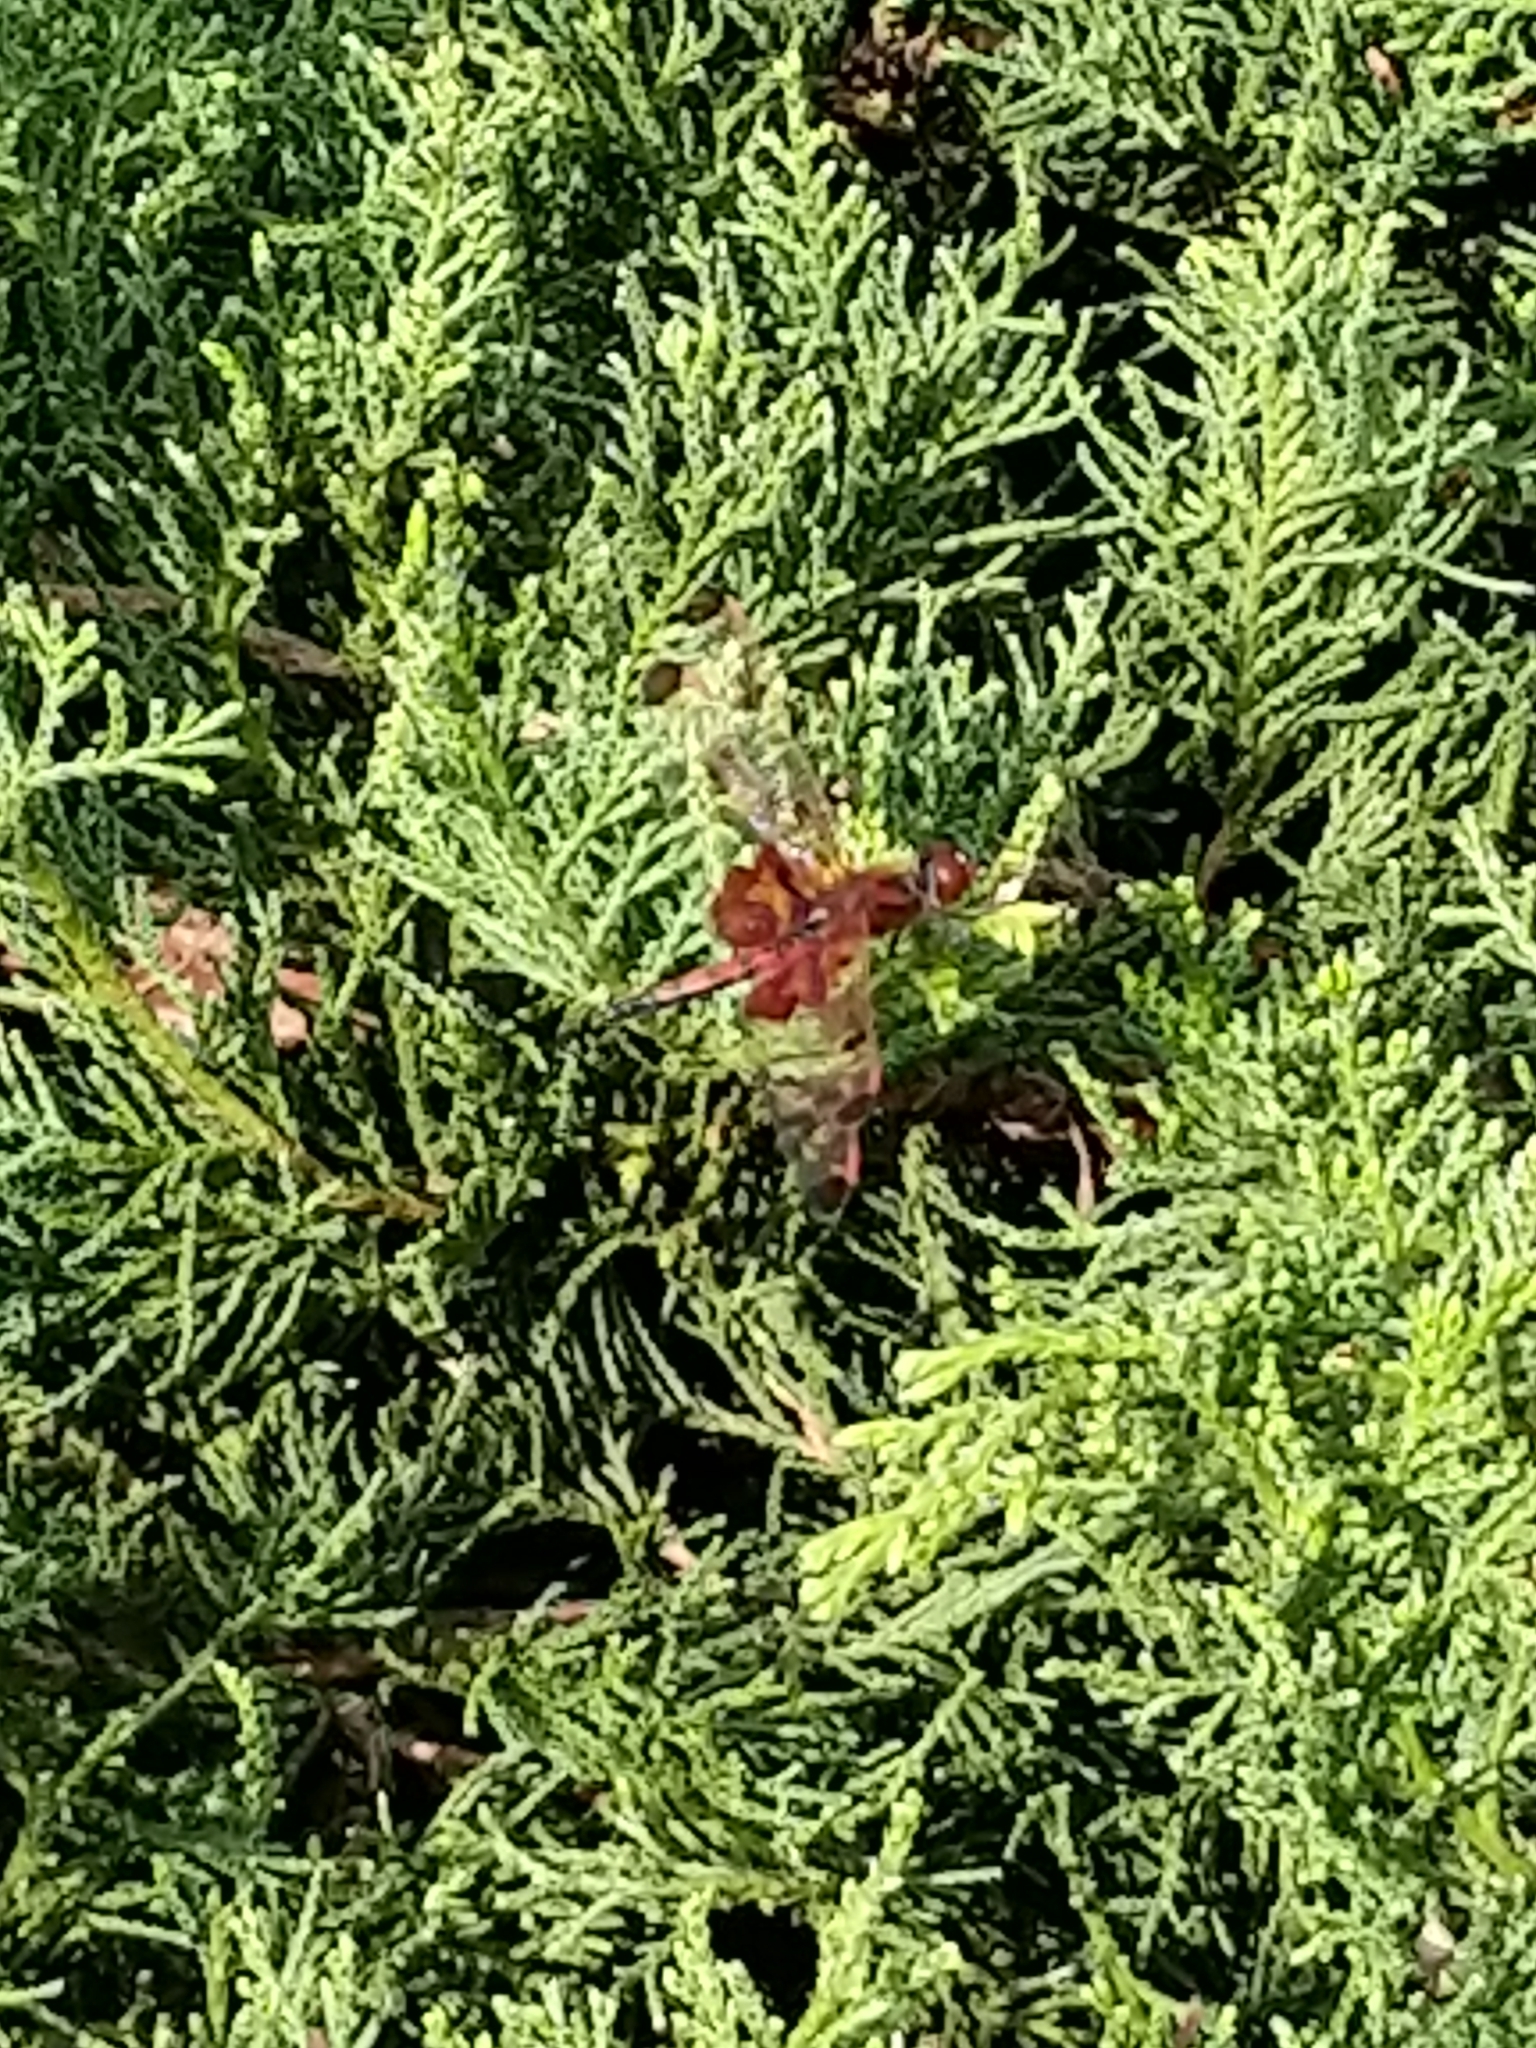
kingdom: Animalia
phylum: Arthropoda
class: Insecta
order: Odonata
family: Libellulidae
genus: Celithemis
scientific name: Celithemis elisa
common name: Calico pennant
